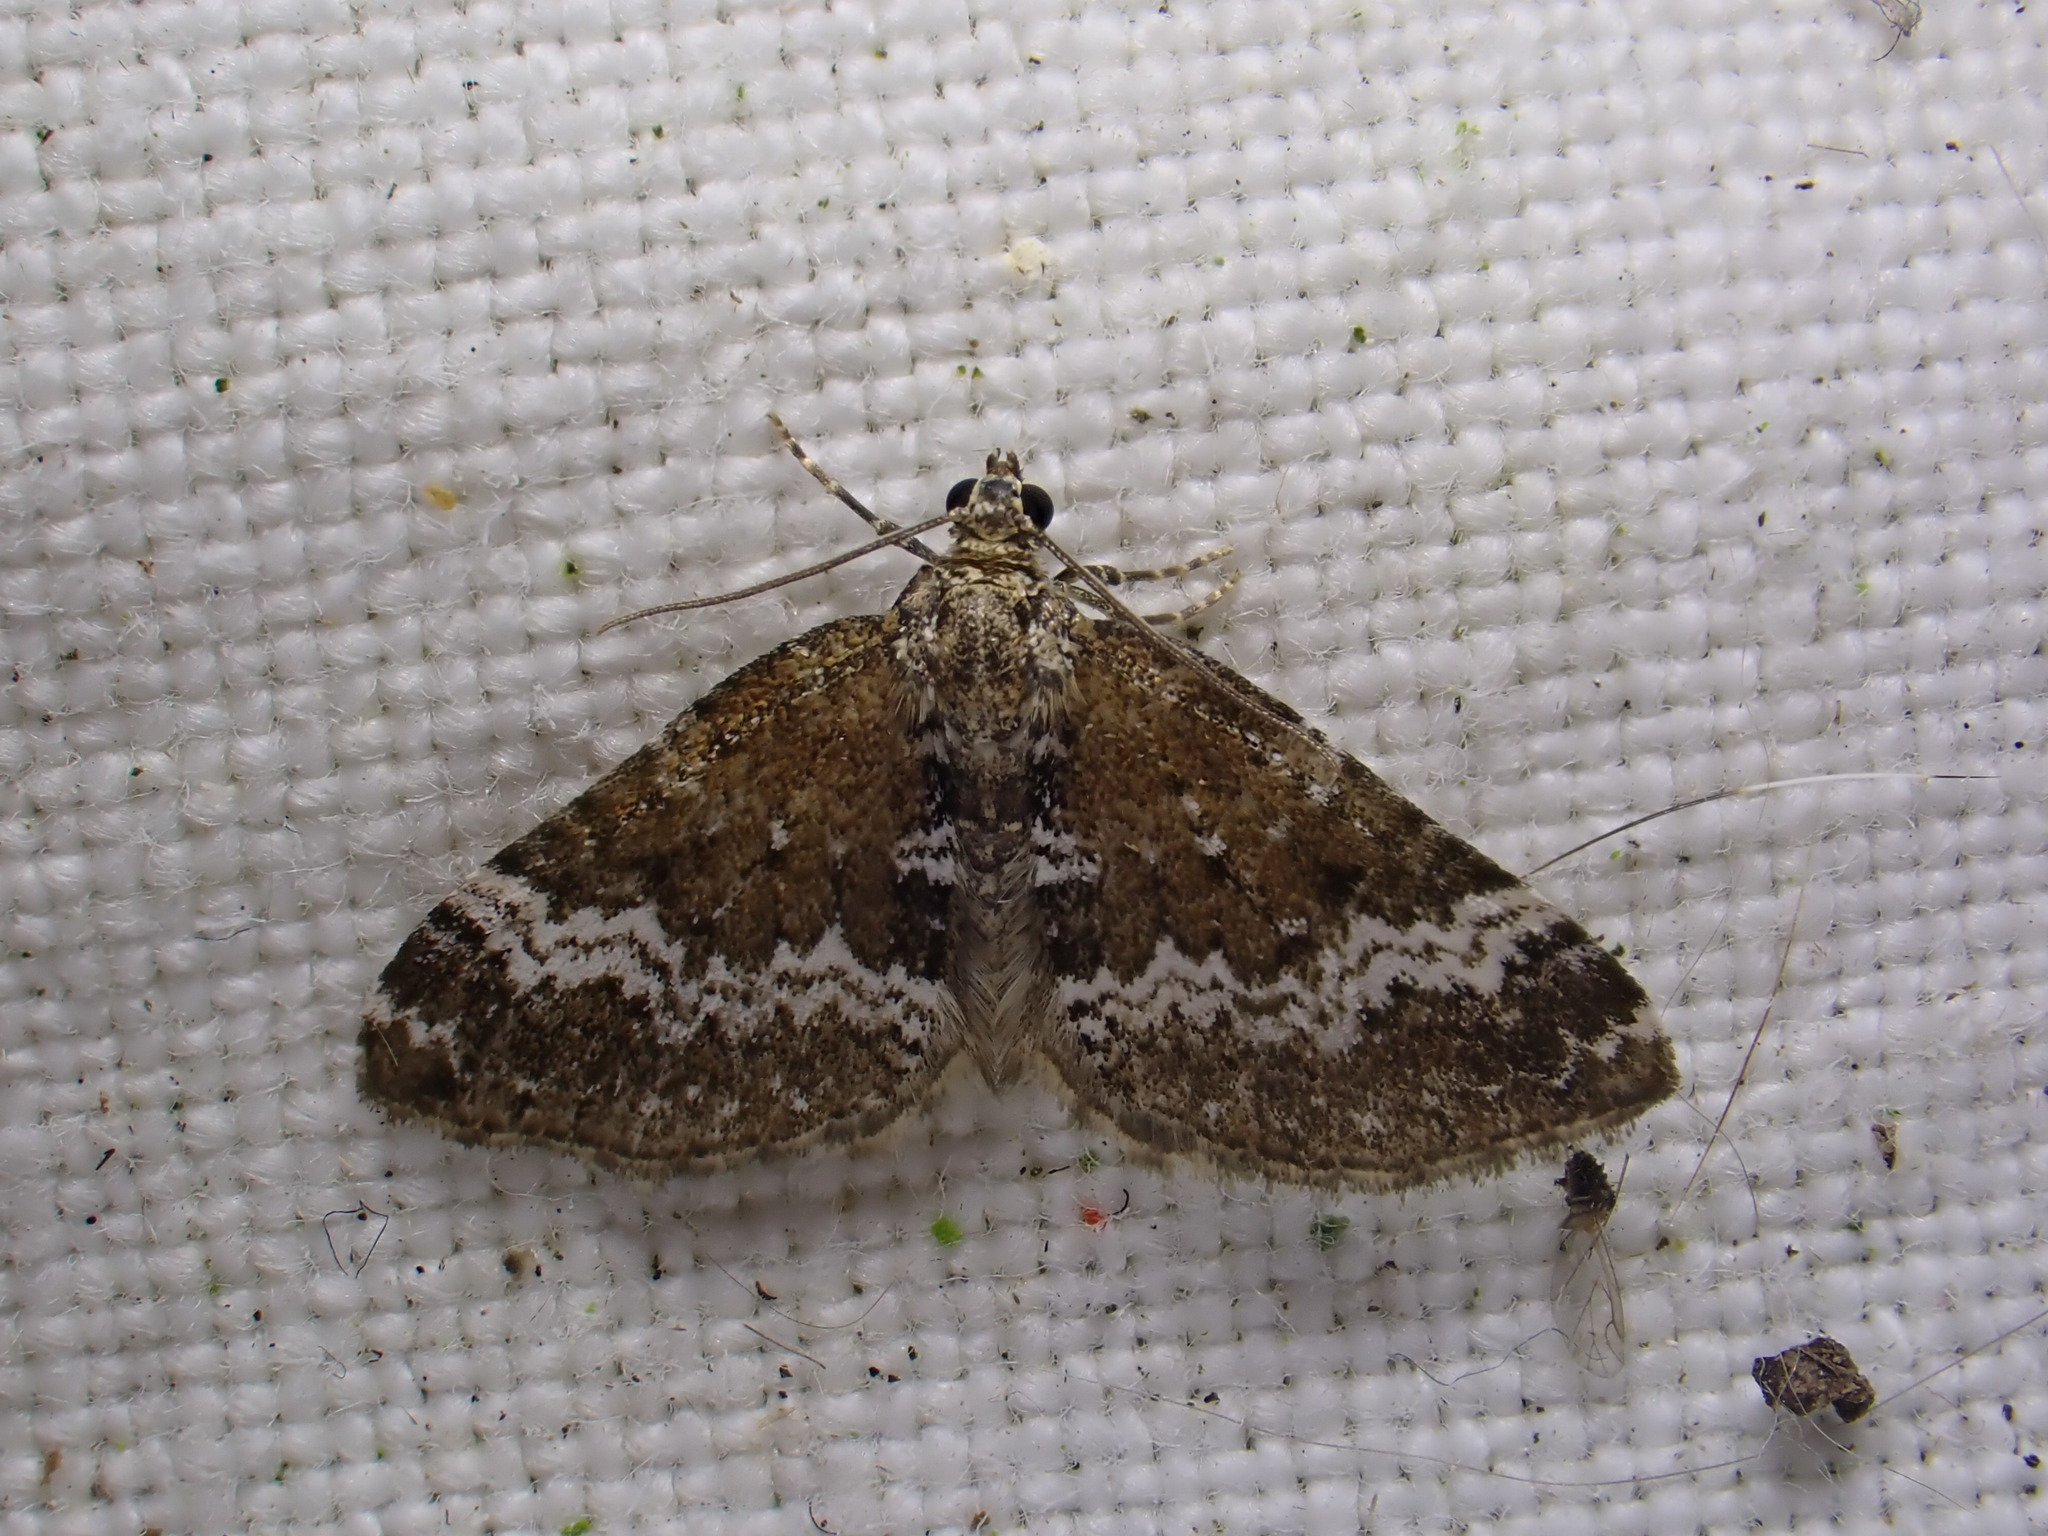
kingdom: Animalia
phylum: Arthropoda
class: Insecta
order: Lepidoptera
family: Geometridae
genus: Perizoma
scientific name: Perizoma alchemillata
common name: Small rivulet
